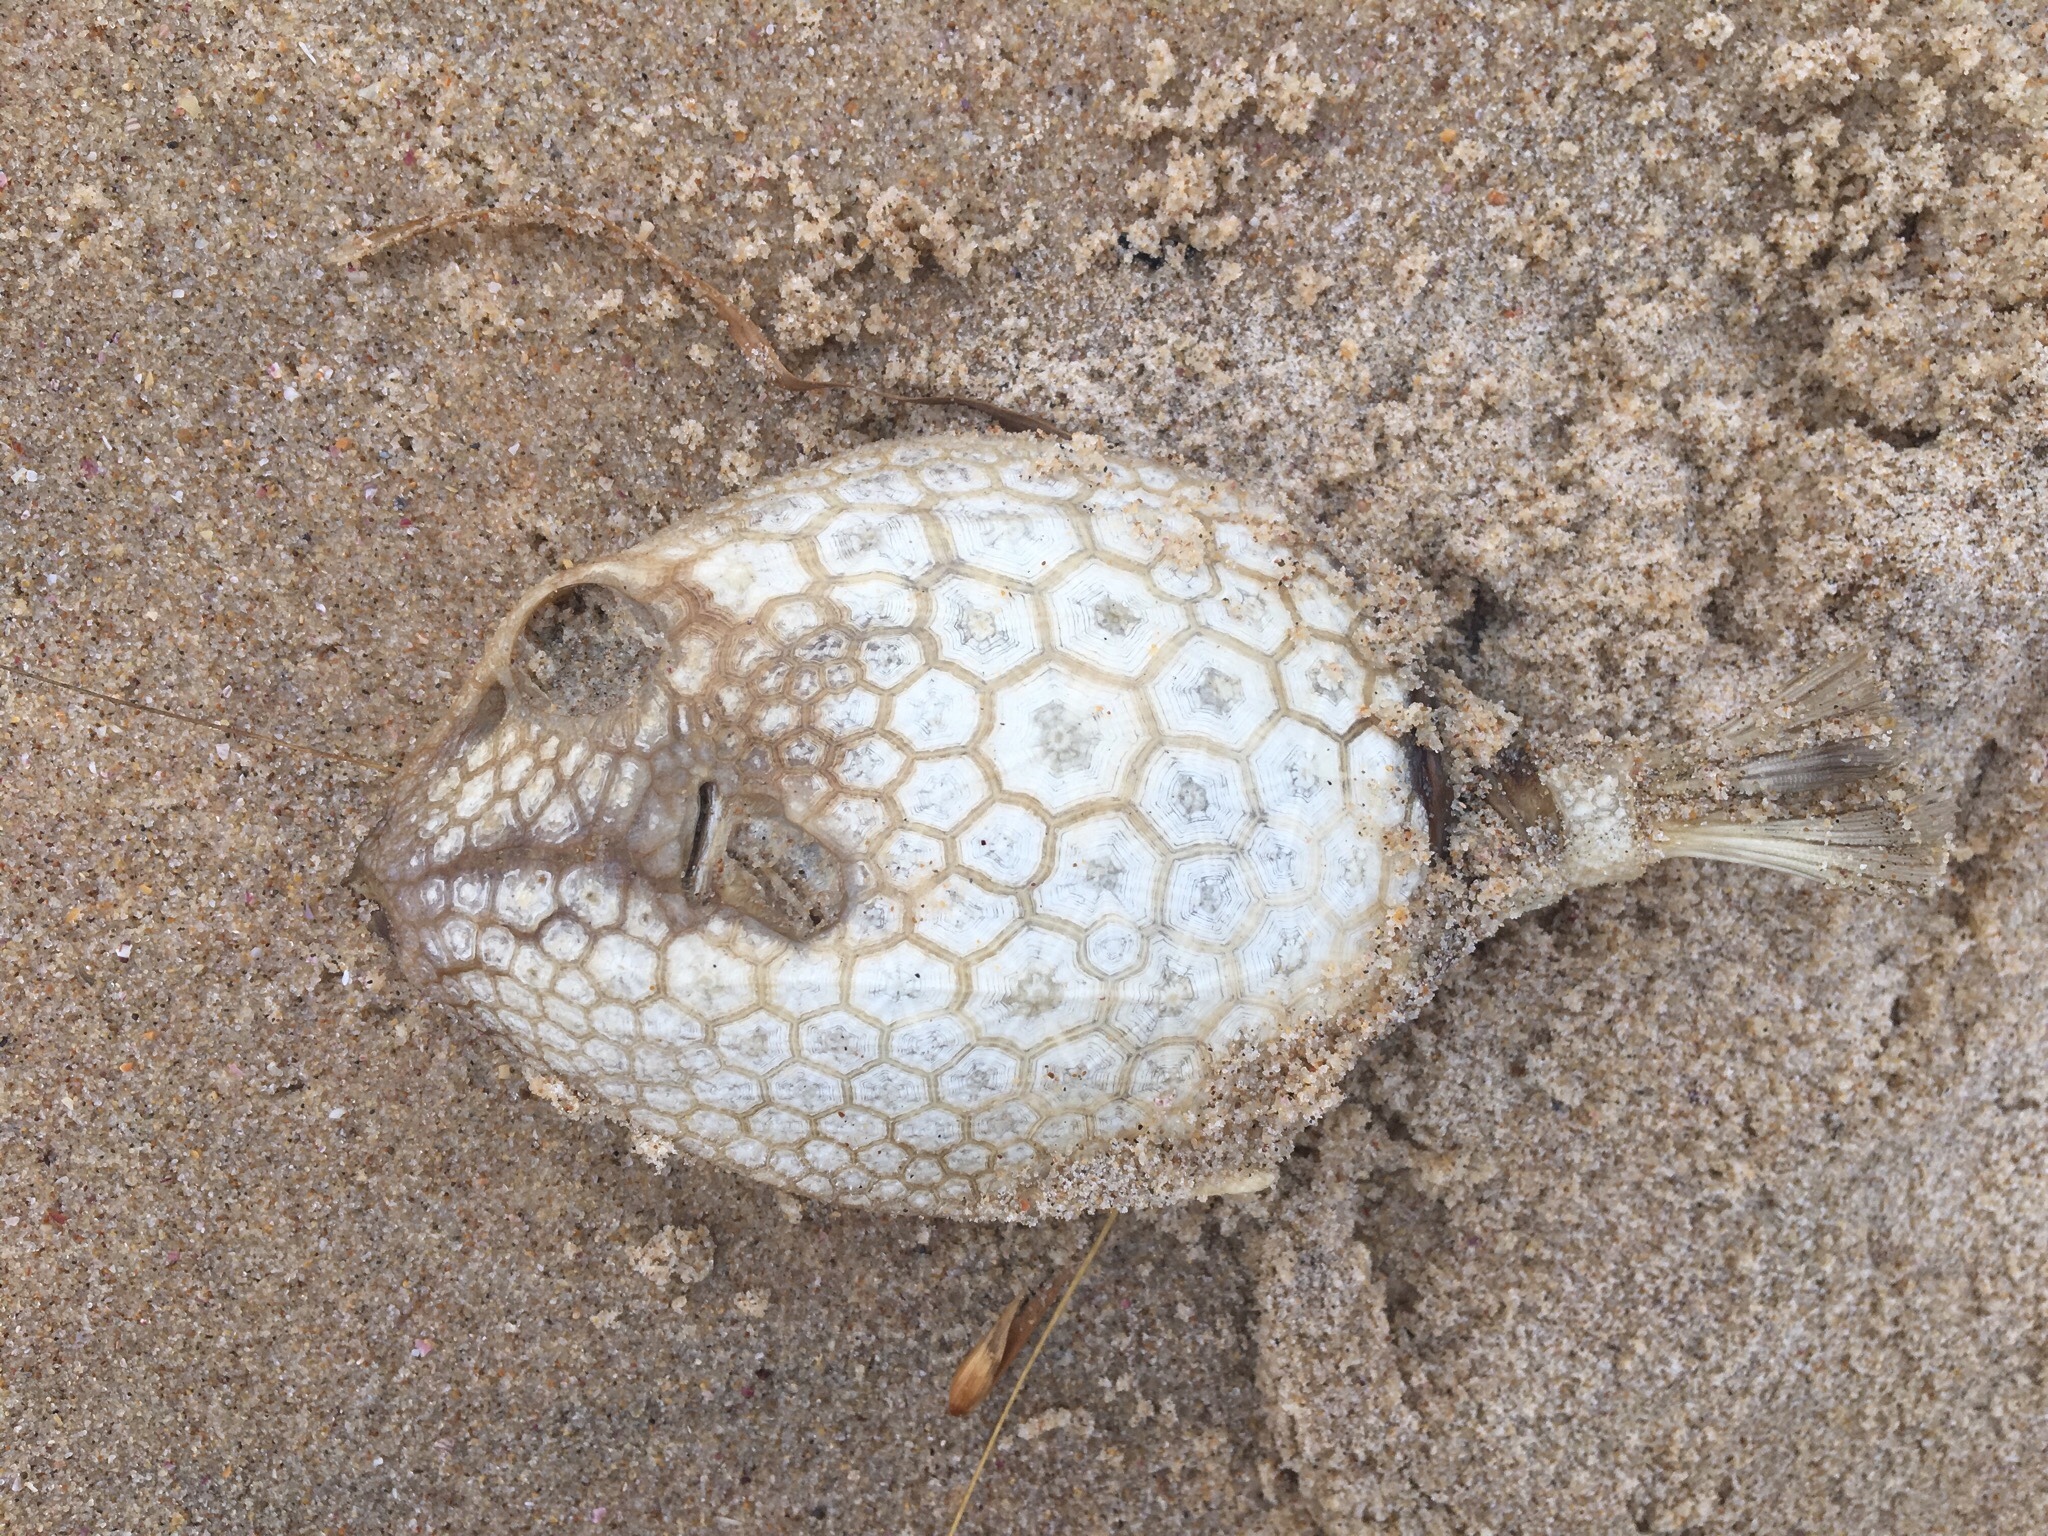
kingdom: Animalia
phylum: Chordata
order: Tetraodontiformes
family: Aracanidae
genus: Anoplocapros
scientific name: Anoplocapros inermis
